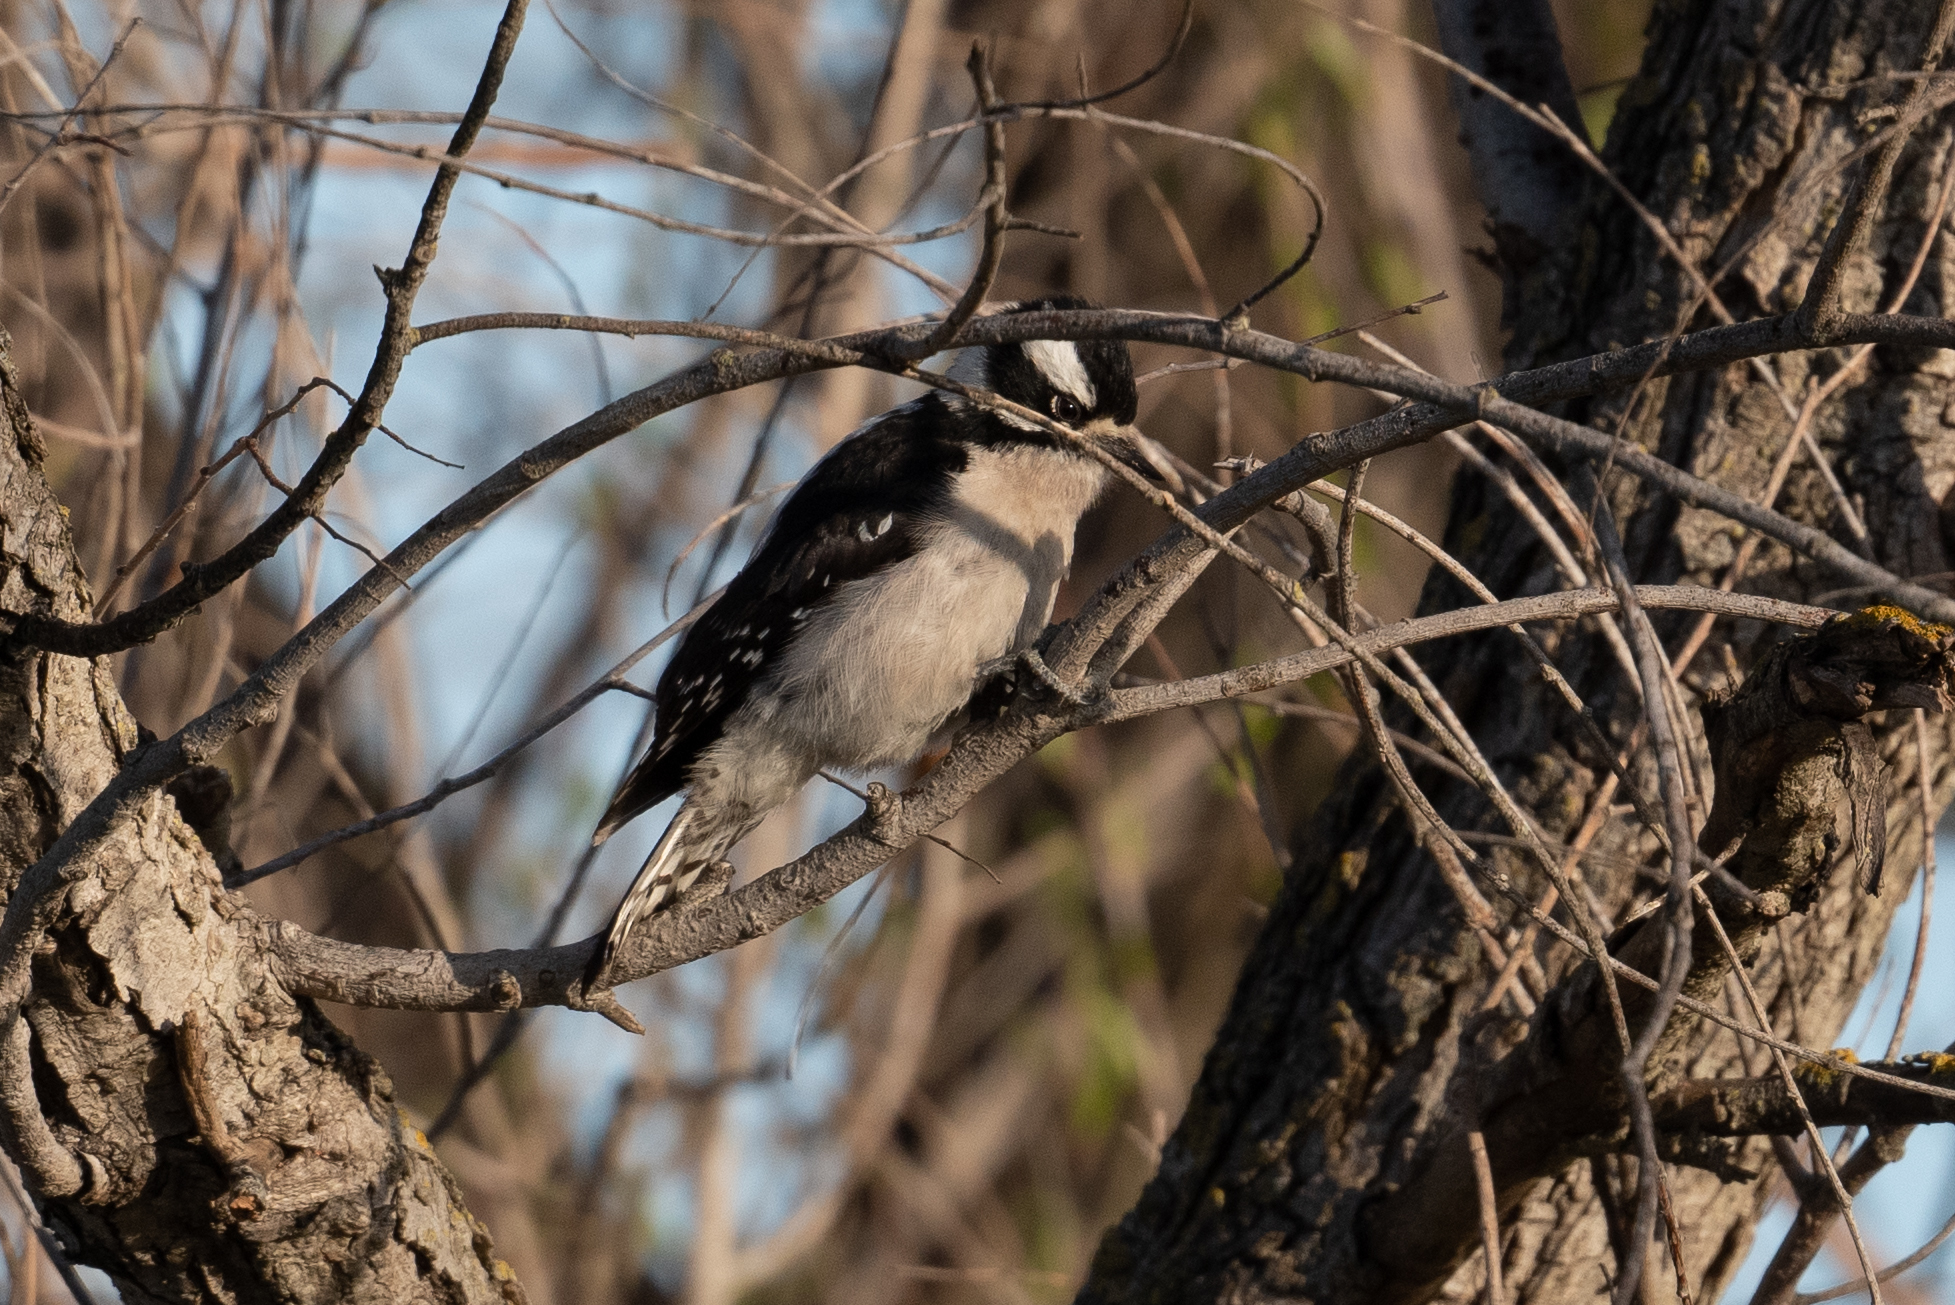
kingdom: Animalia
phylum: Chordata
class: Aves
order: Piciformes
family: Picidae
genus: Dryobates
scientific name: Dryobates pubescens
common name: Downy woodpecker
